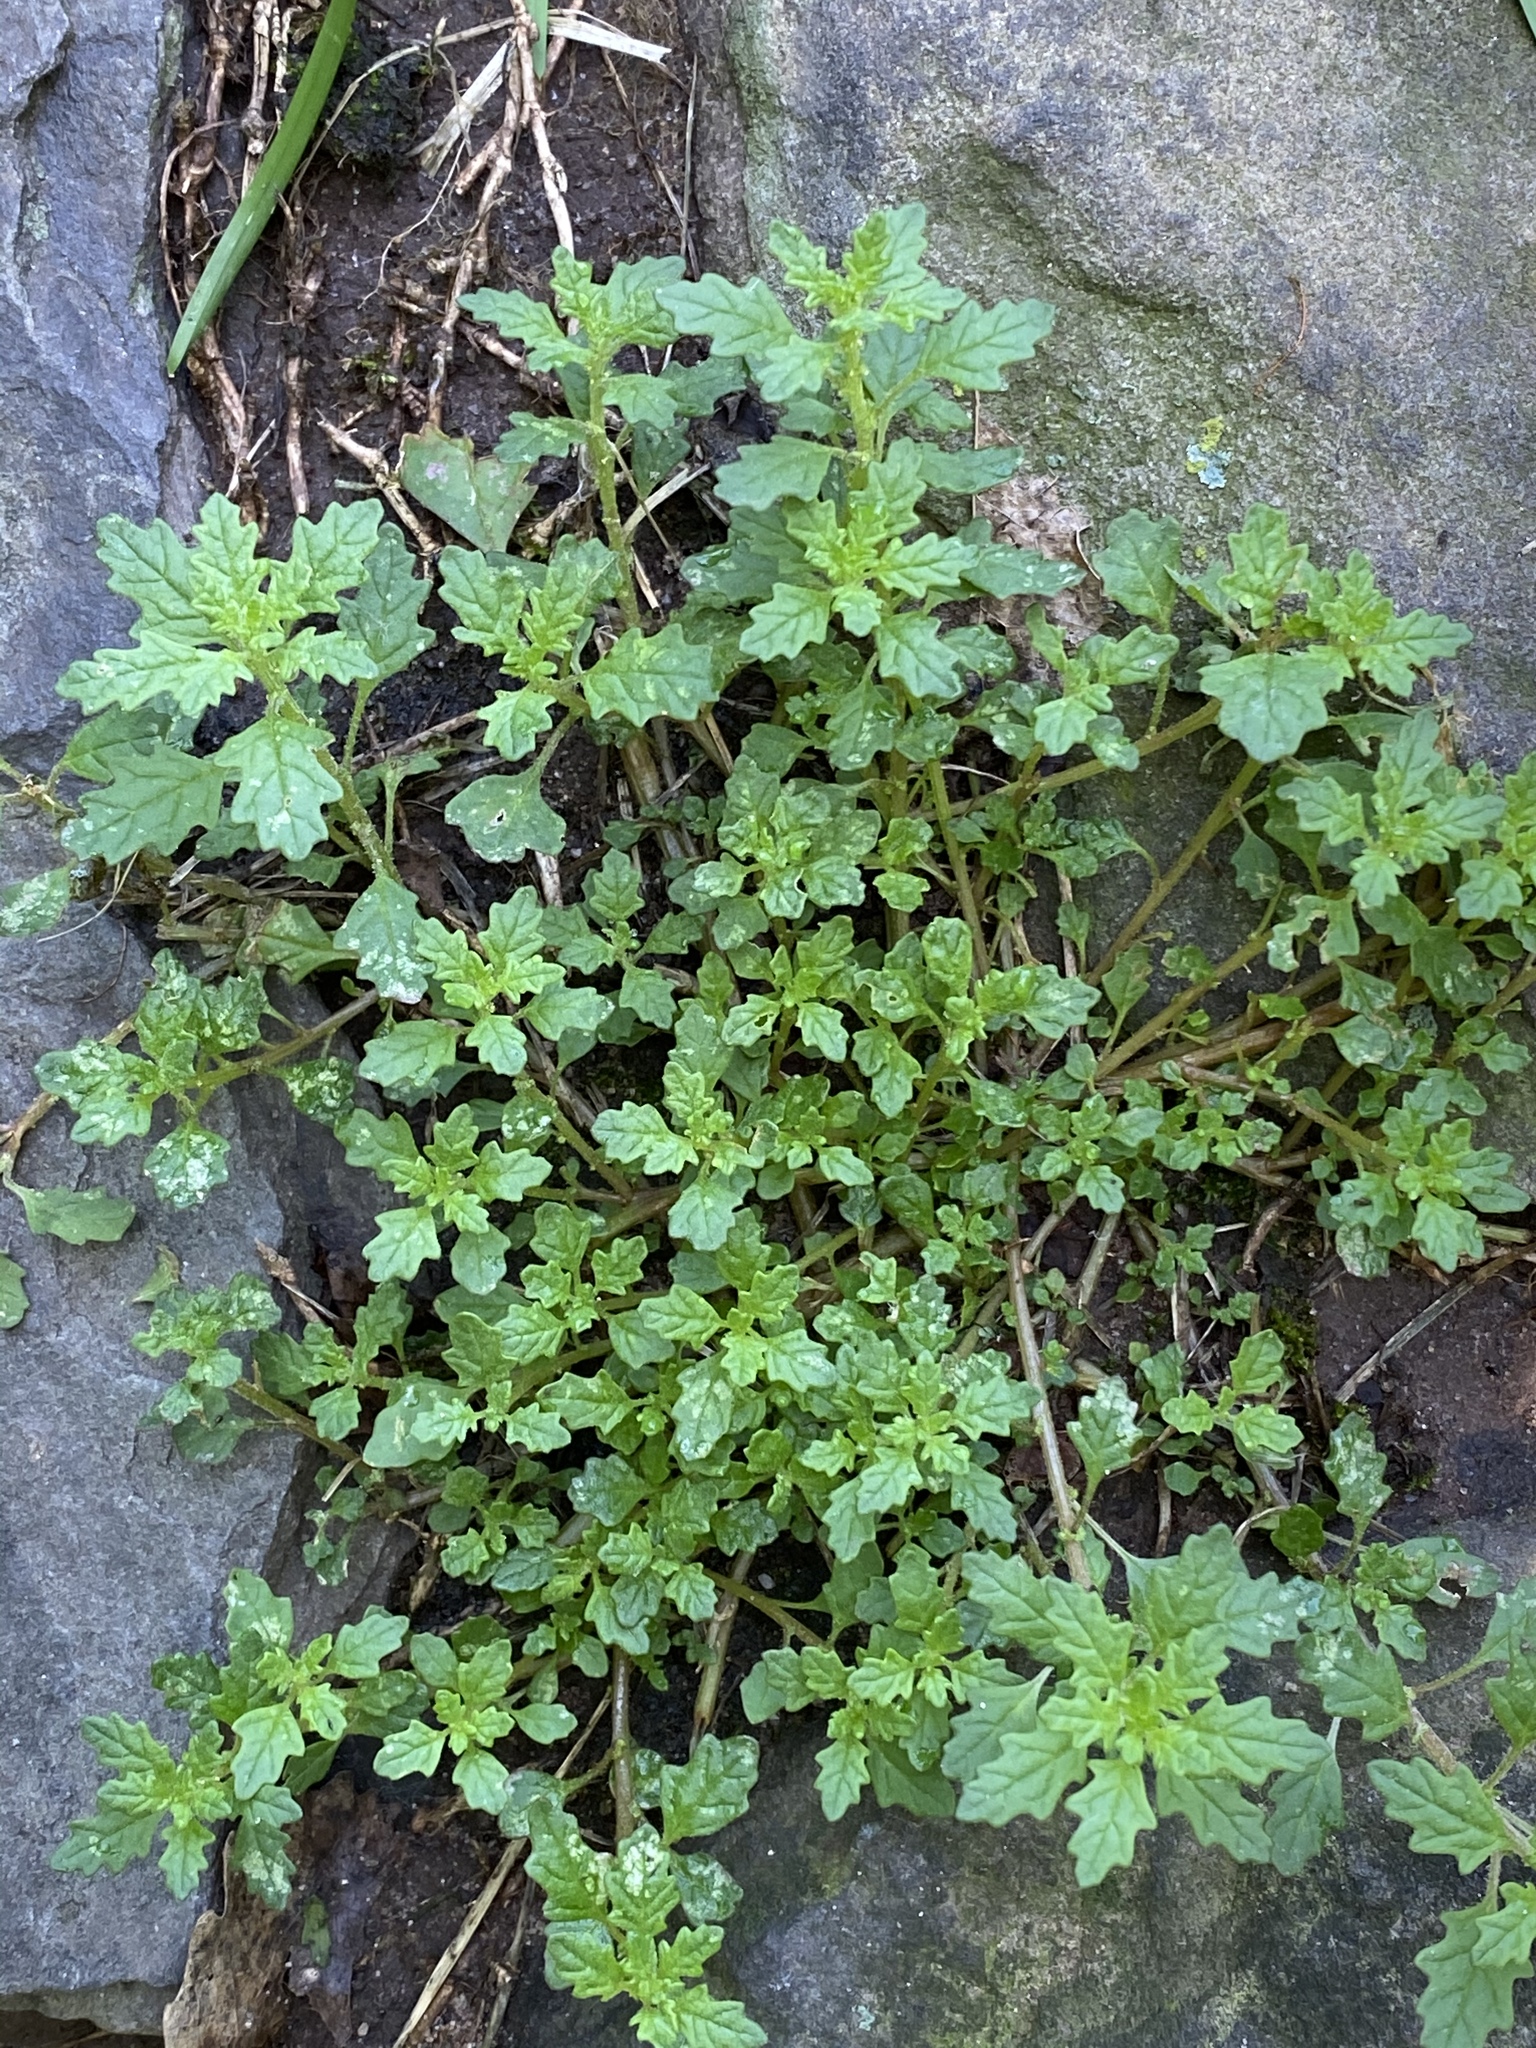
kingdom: Plantae
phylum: Tracheophyta
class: Magnoliopsida
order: Caryophyllales
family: Amaranthaceae
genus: Dysphania
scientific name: Dysphania pumilio
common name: Clammy goosefoot
